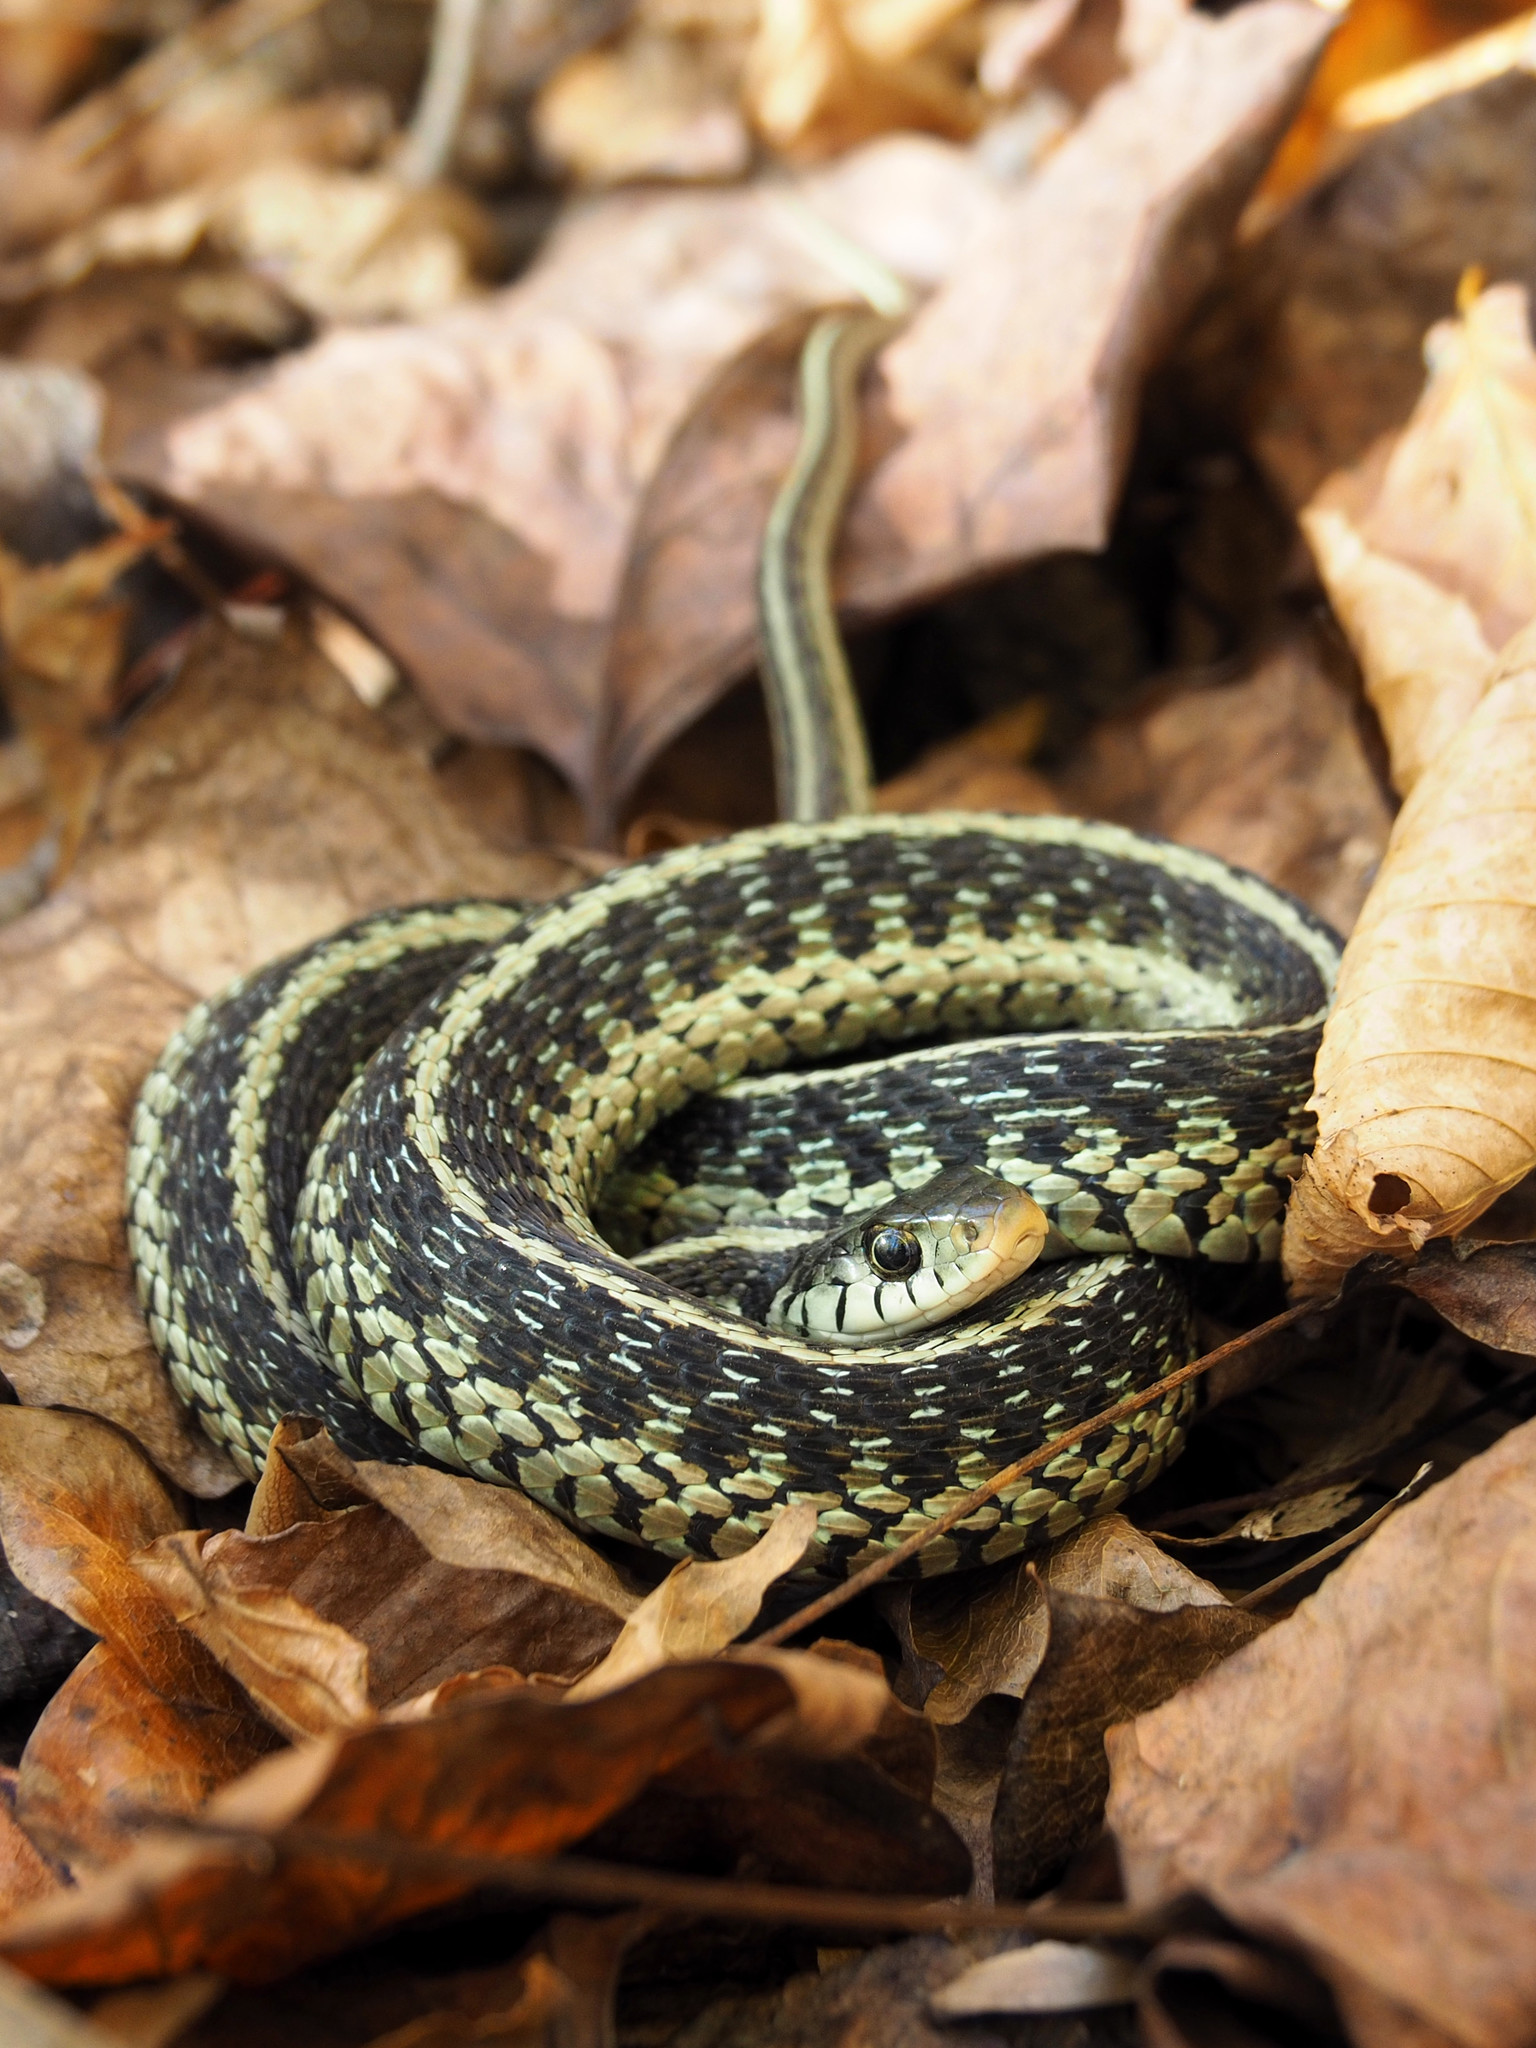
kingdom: Animalia
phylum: Chordata
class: Squamata
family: Colubridae
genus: Thamnophis
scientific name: Thamnophis sirtalis
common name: Common garter snake
